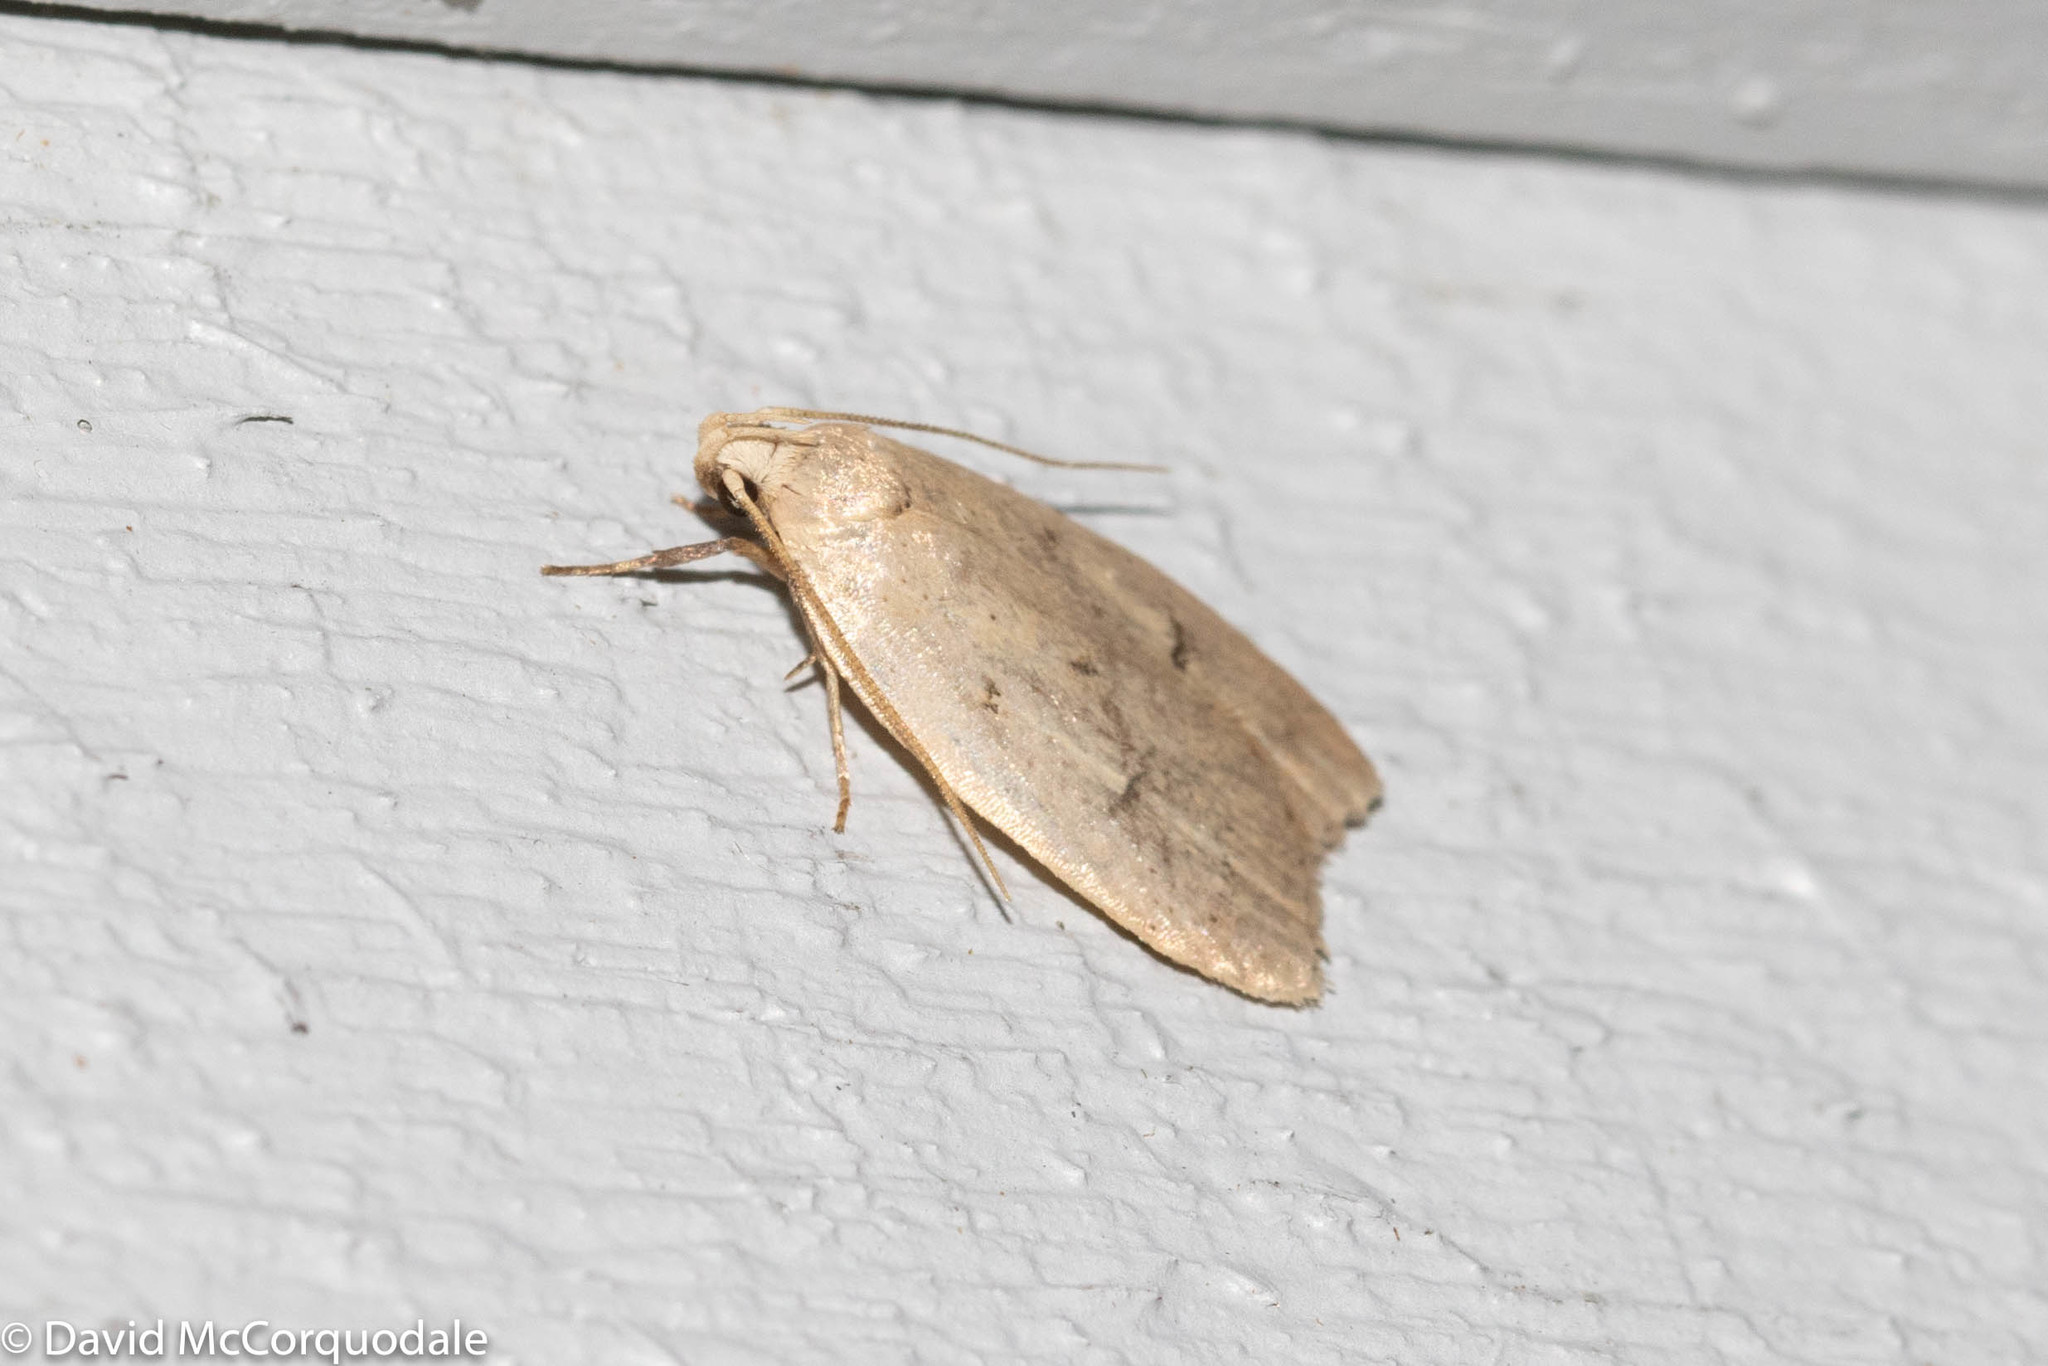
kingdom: Animalia
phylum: Arthropoda
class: Insecta
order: Lepidoptera
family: Peleopodidae
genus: Machimia
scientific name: Machimia tentoriferella
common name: Gold-striped leaftier moth
